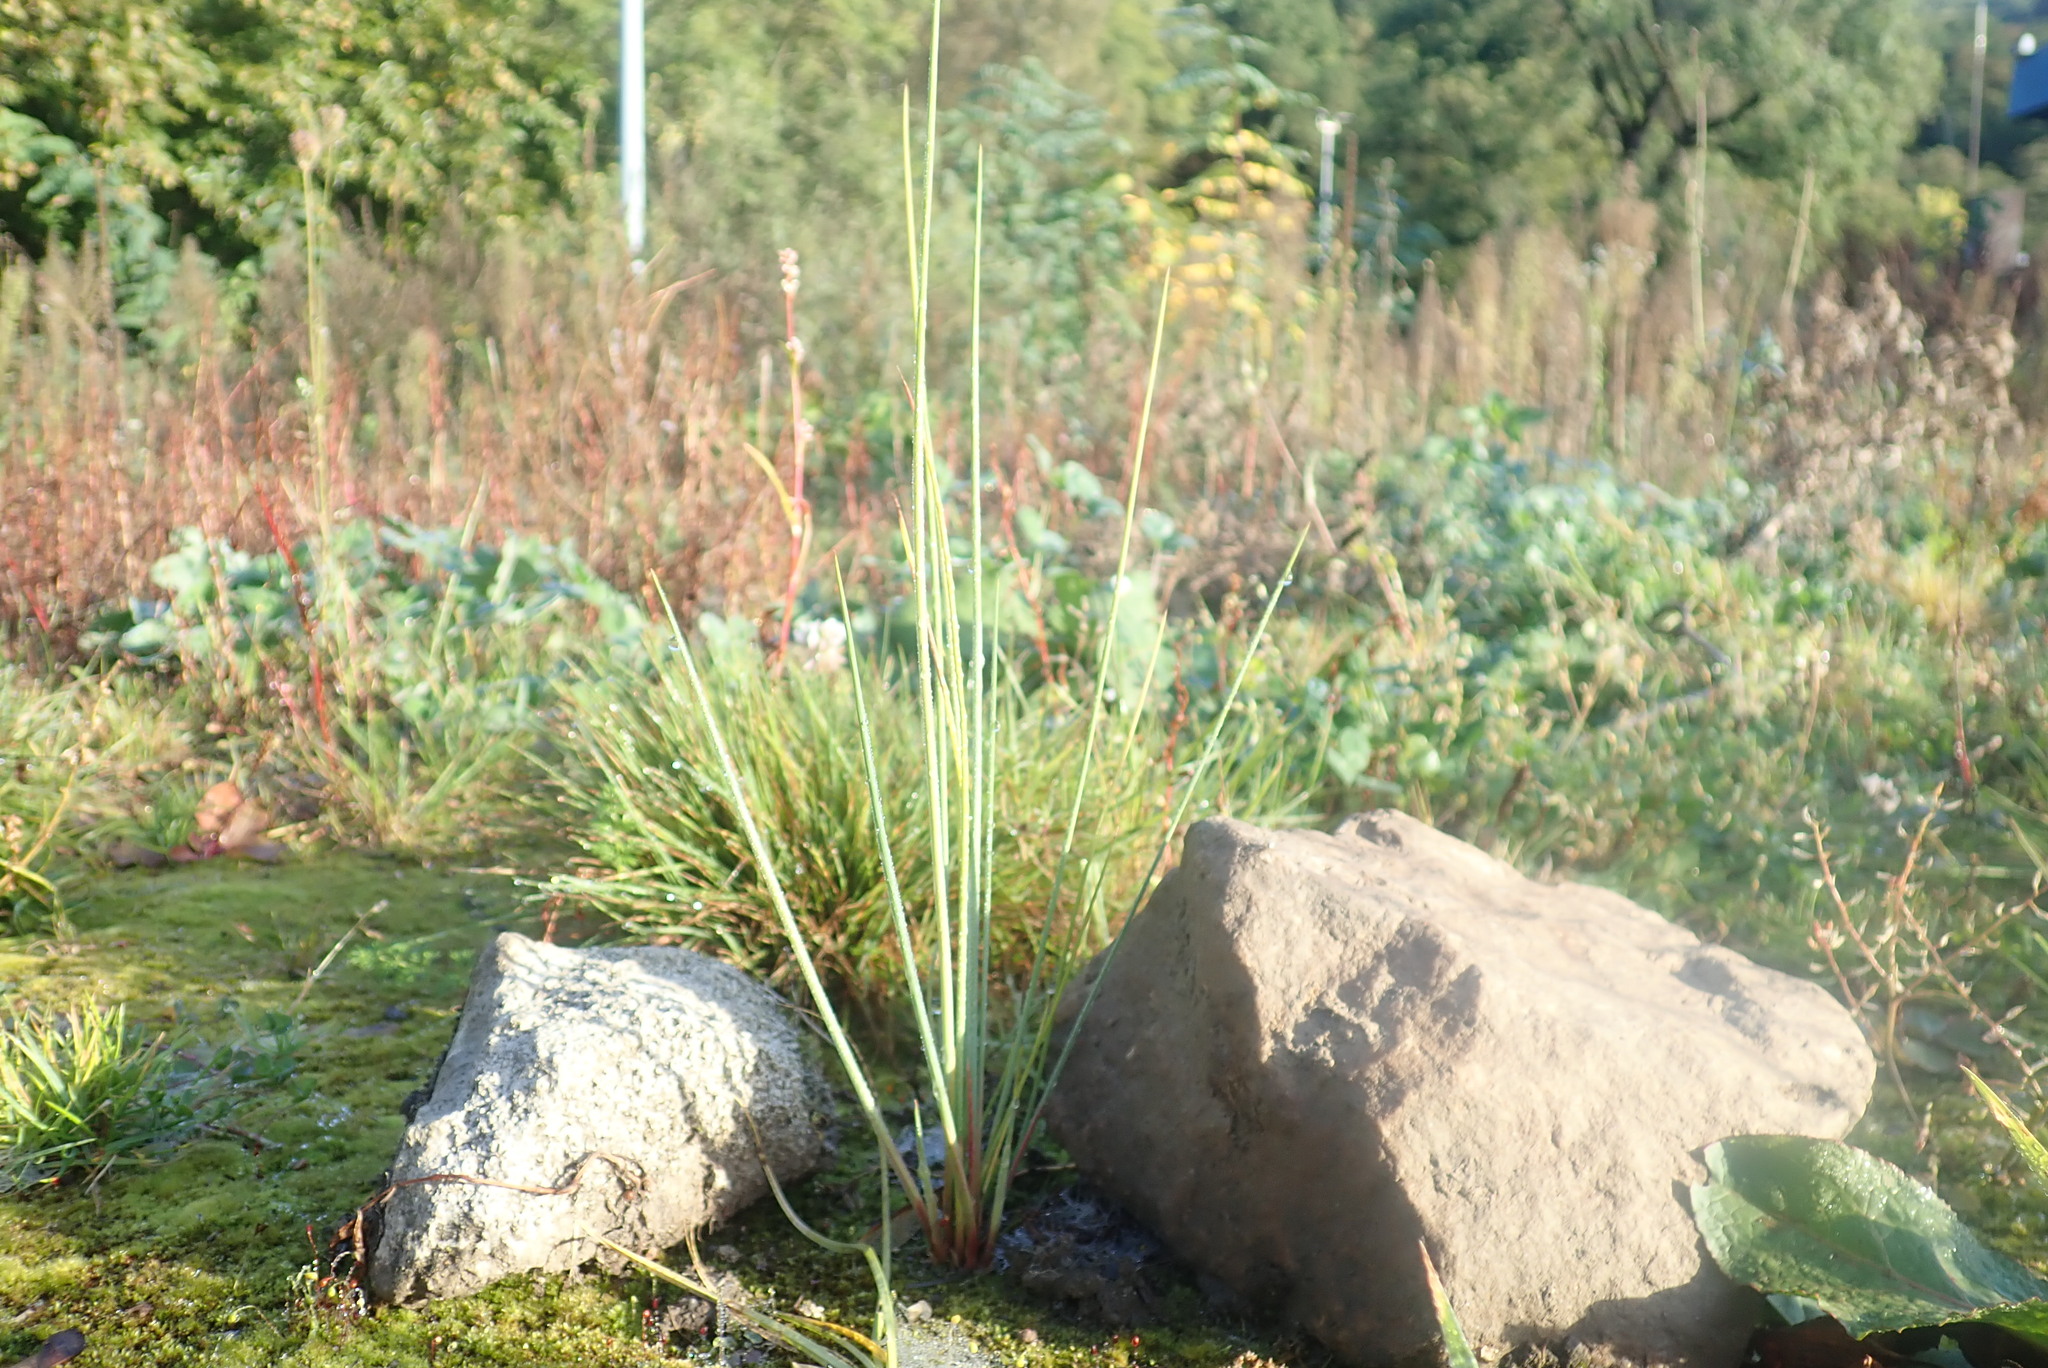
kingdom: Plantae
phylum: Tracheophyta
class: Liliopsida
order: Poales
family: Juncaceae
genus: Juncus
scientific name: Juncus aridicola
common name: Tussock rush
